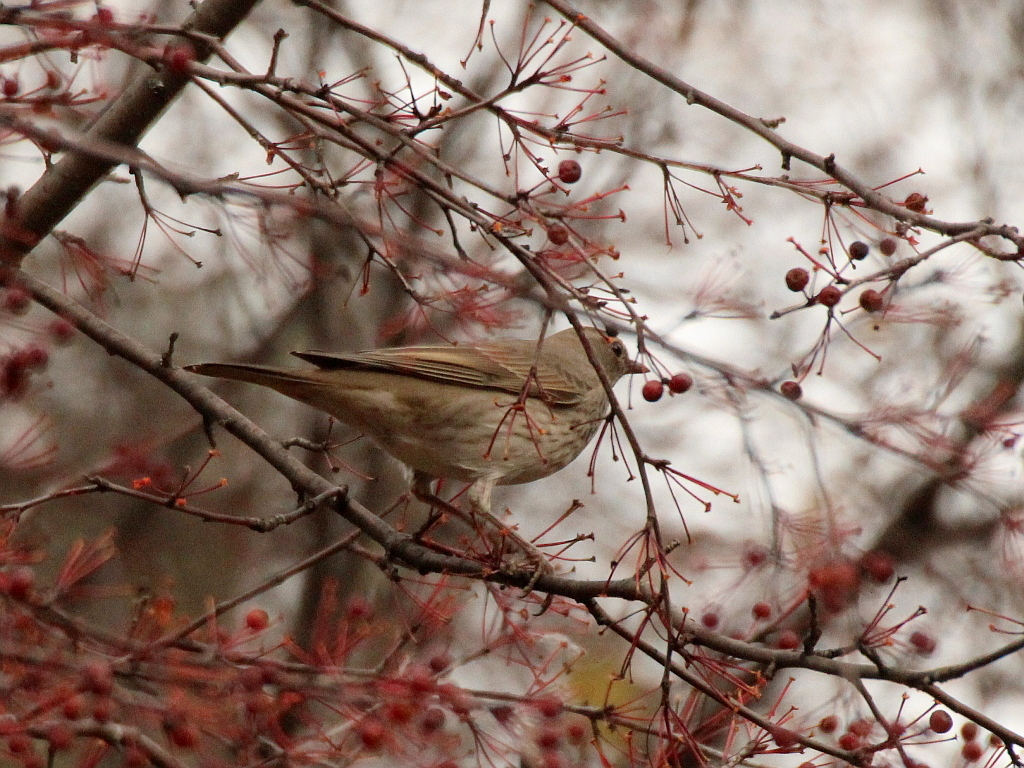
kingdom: Animalia
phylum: Chordata
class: Aves
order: Passeriformes
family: Turdidae
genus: Turdus
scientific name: Turdus atrogularis
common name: Black-throated thrush
